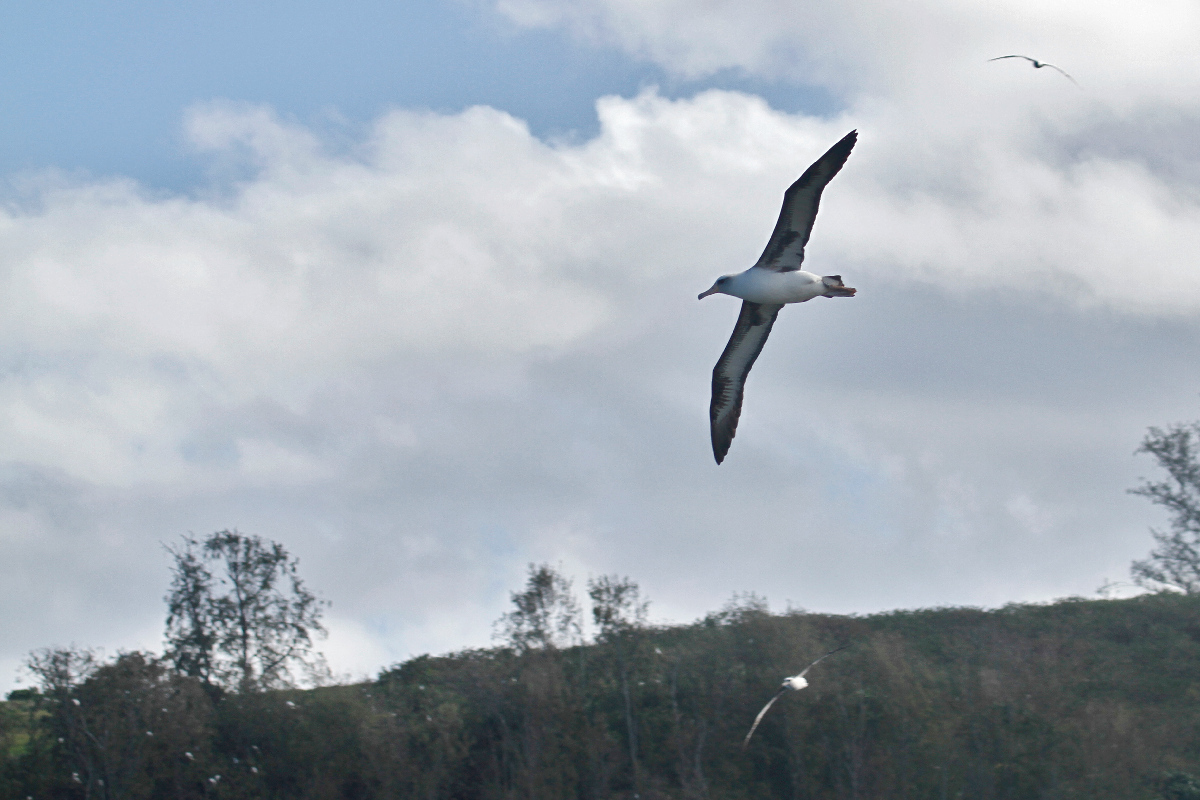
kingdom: Animalia
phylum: Chordata
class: Aves
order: Procellariiformes
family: Diomedeidae
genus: Phoebastria
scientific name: Phoebastria immutabilis
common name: Laysan albatross
